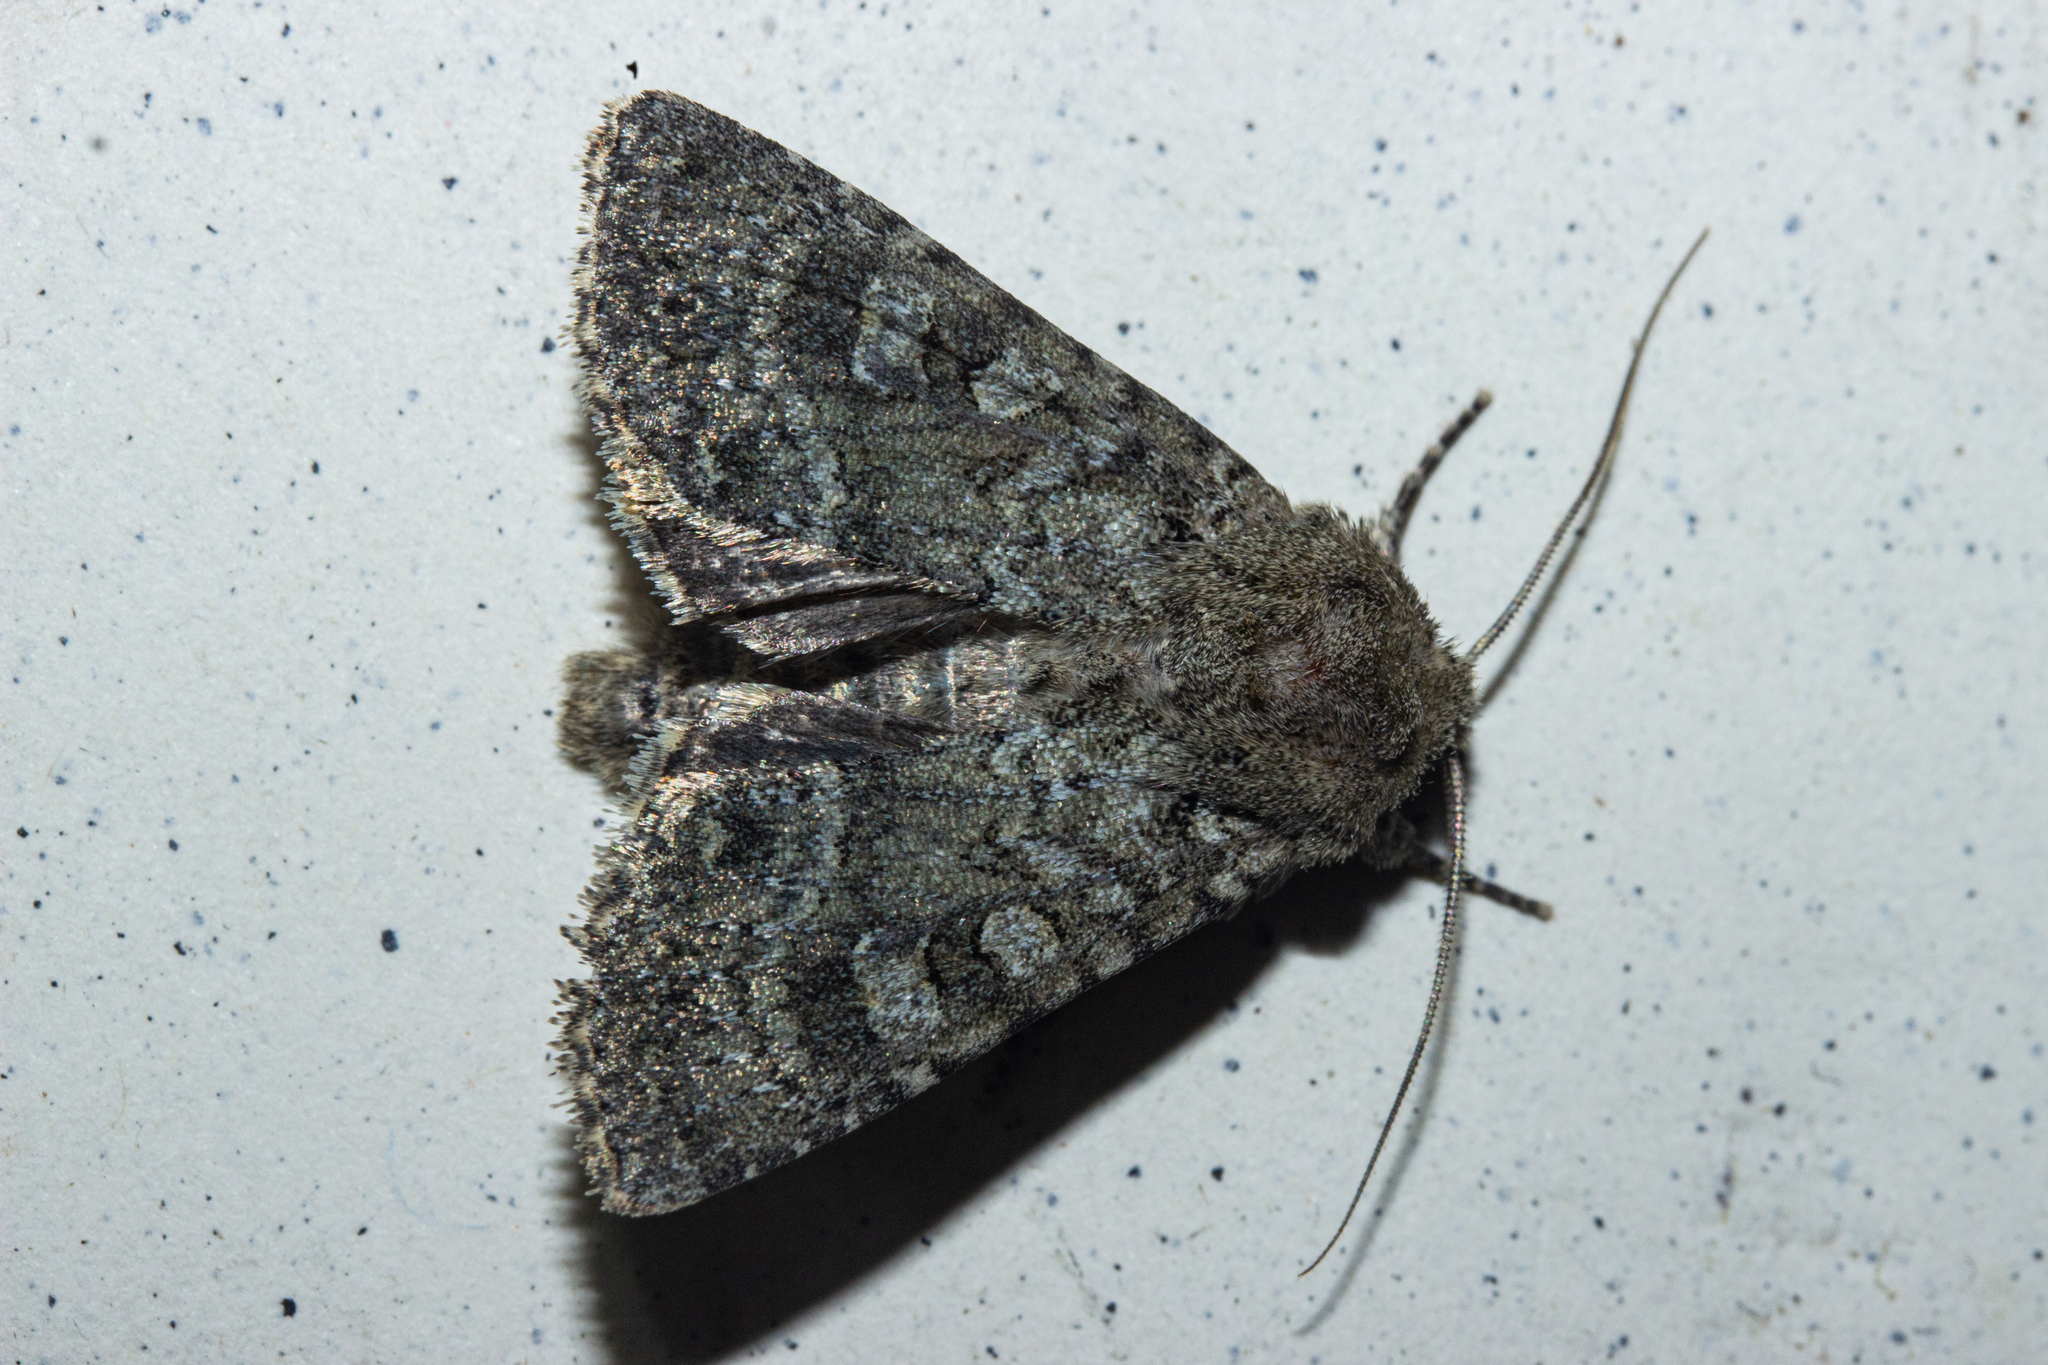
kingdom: Animalia
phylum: Arthropoda
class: Insecta
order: Lepidoptera
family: Noctuidae
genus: Ichneutica
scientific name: Ichneutica barbara
